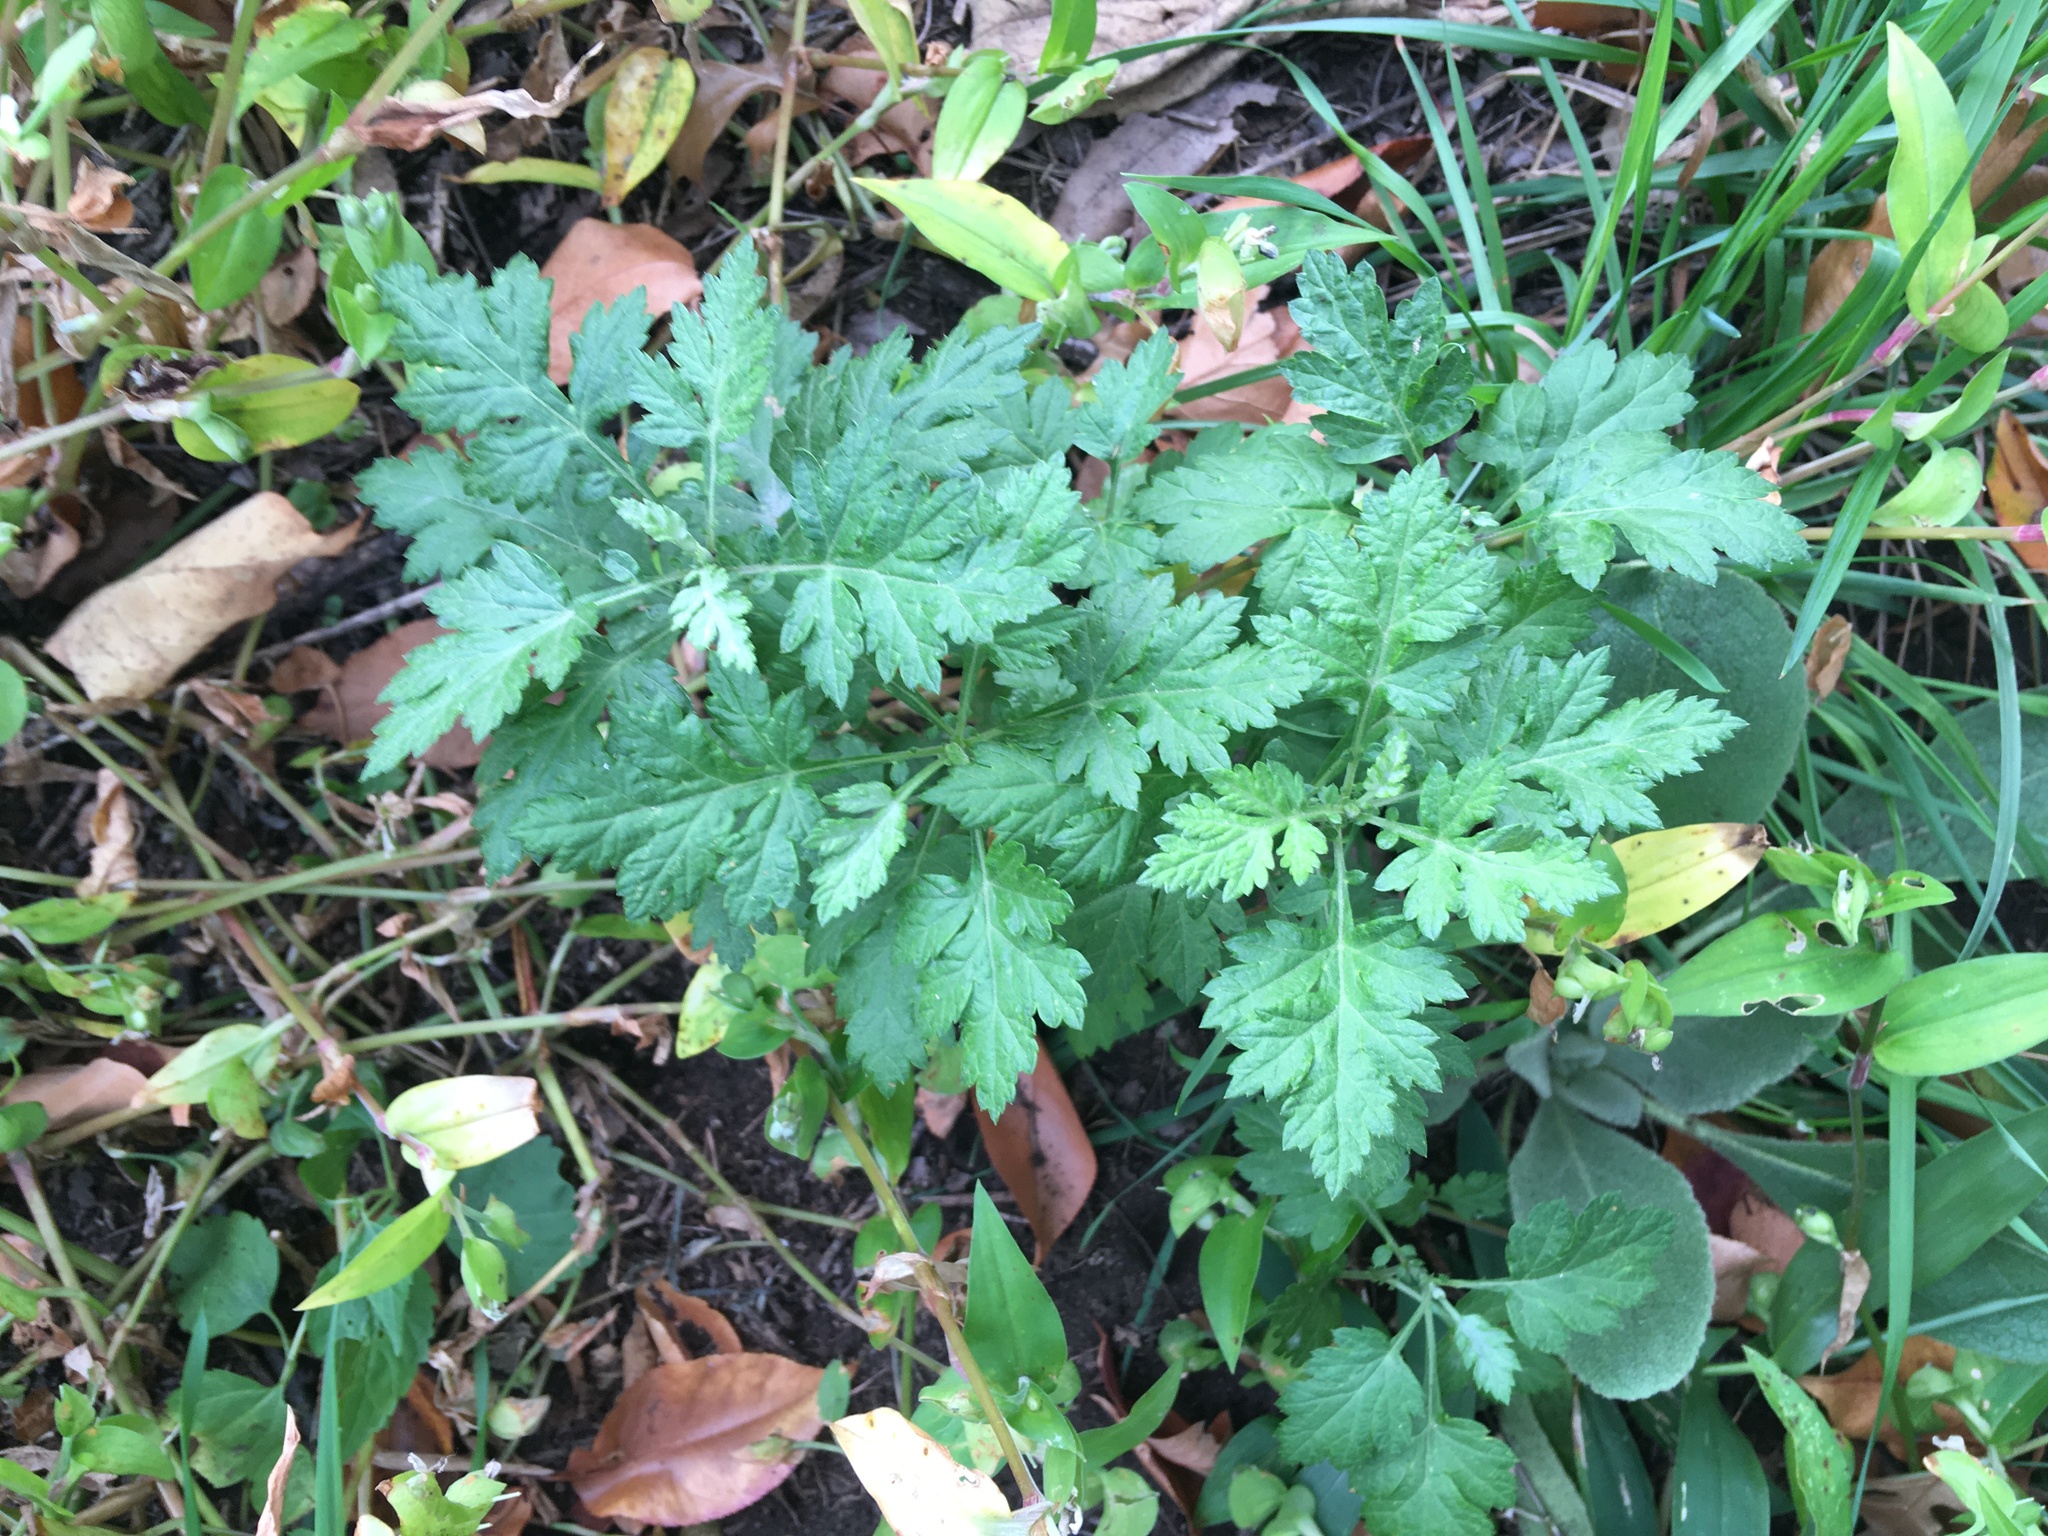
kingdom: Plantae
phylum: Tracheophyta
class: Magnoliopsida
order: Asterales
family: Asteraceae
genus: Artemisia
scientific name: Artemisia vulgaris
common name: Mugwort
